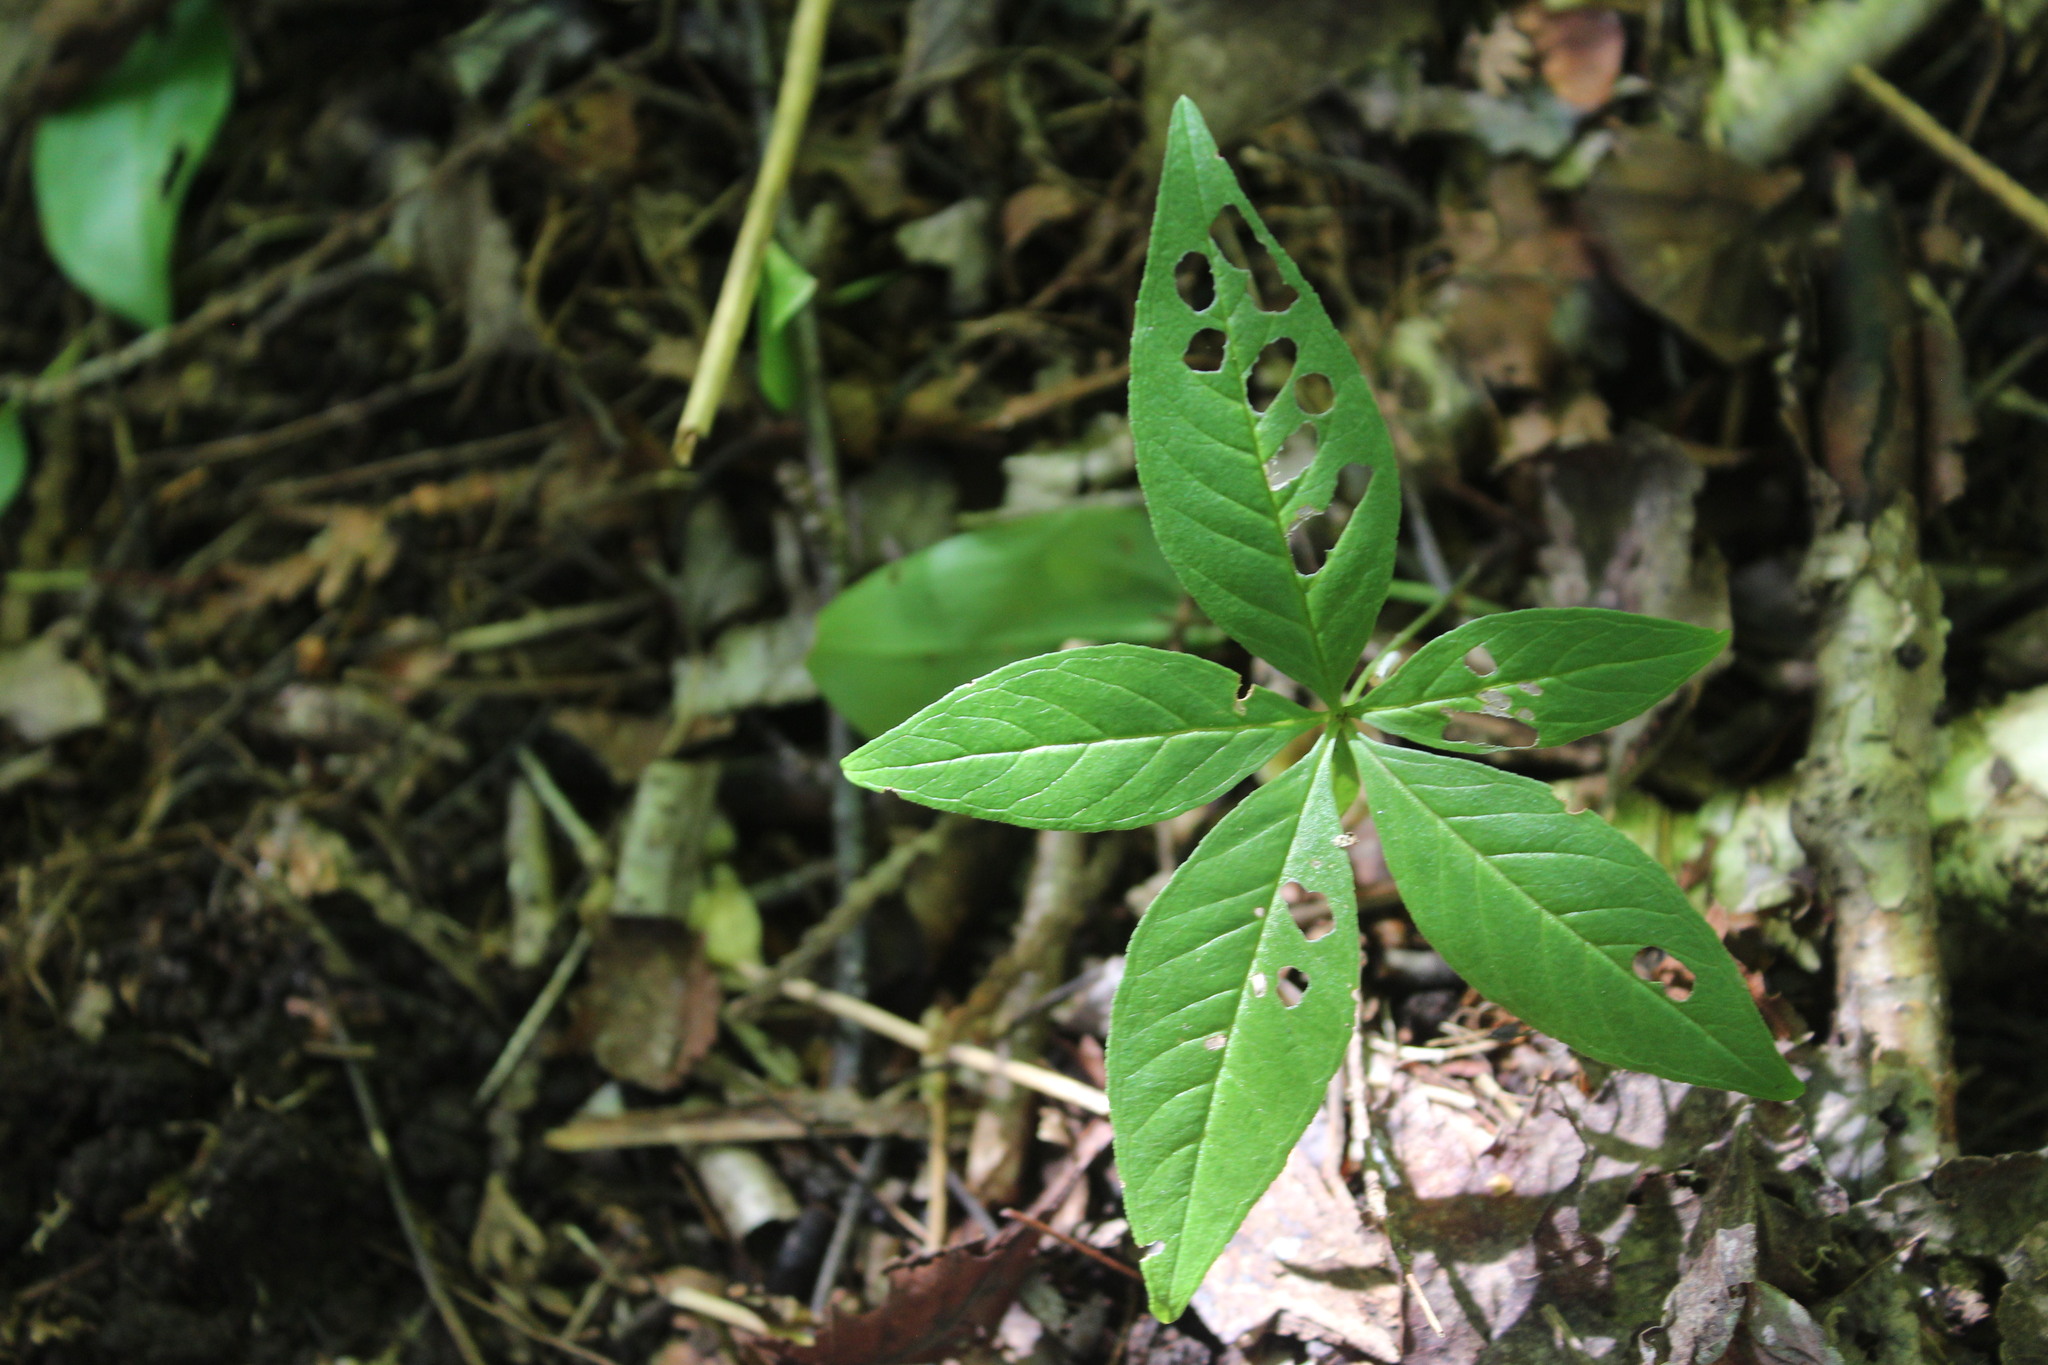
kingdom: Plantae
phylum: Tracheophyta
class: Magnoliopsida
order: Ericales
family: Primulaceae
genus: Lysimachia
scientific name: Lysimachia borealis
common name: American starflower
